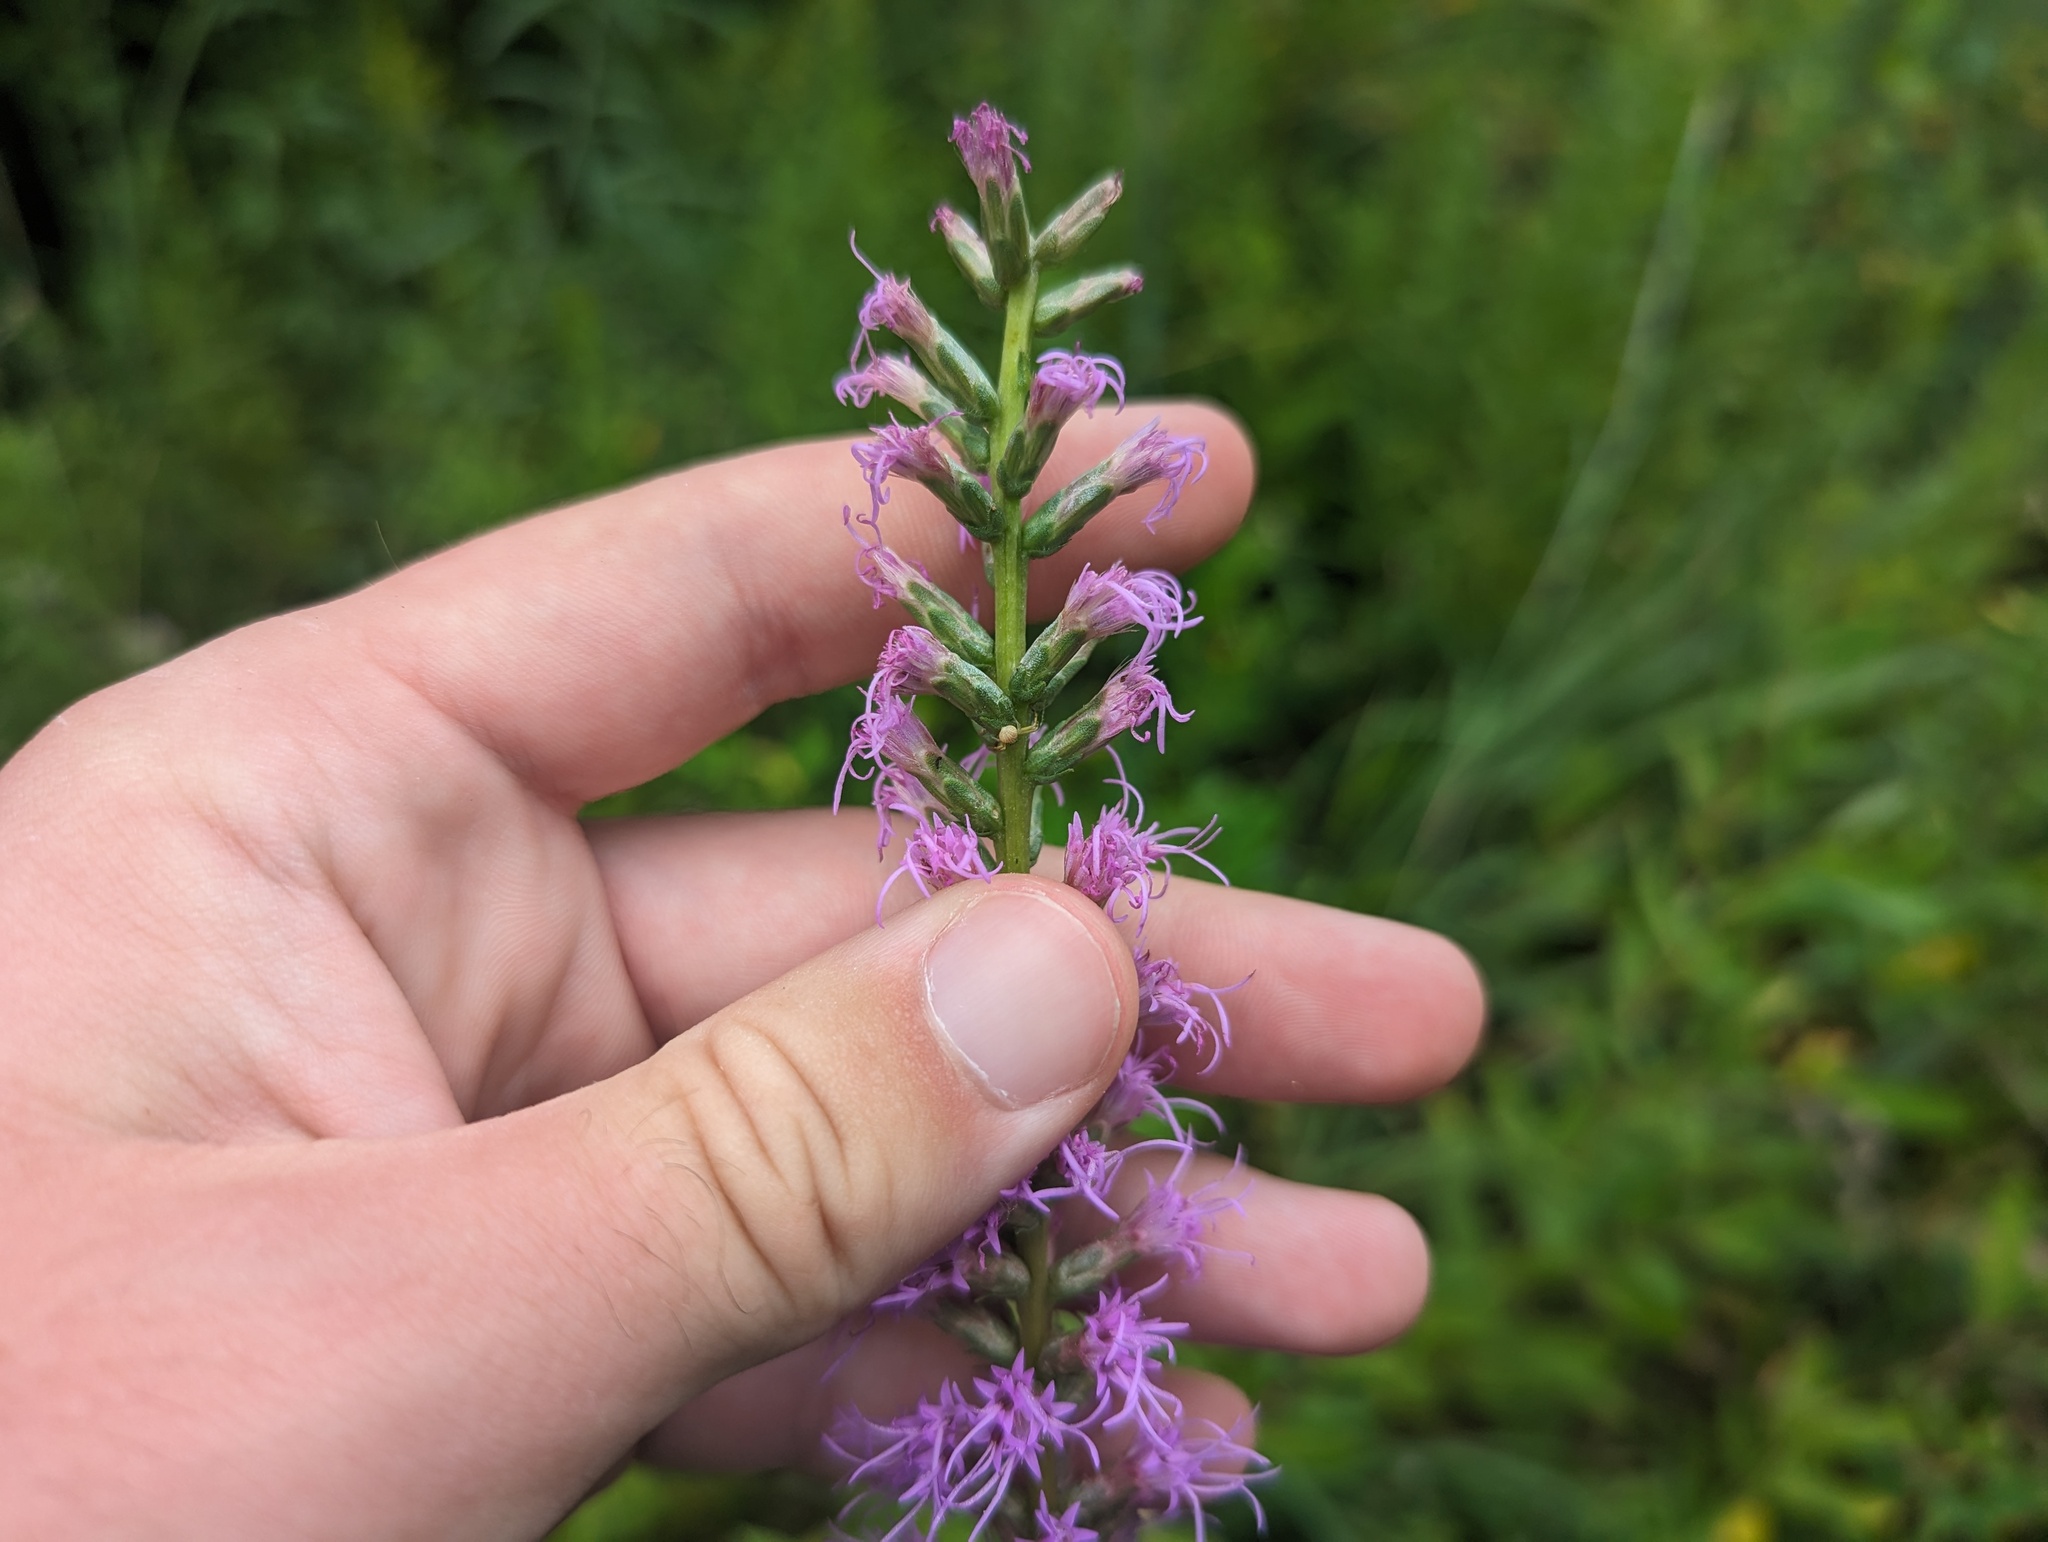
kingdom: Plantae
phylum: Tracheophyta
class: Magnoliopsida
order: Asterales
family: Asteraceae
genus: Liatris
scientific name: Liatris spicata
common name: Florist gayfeather
